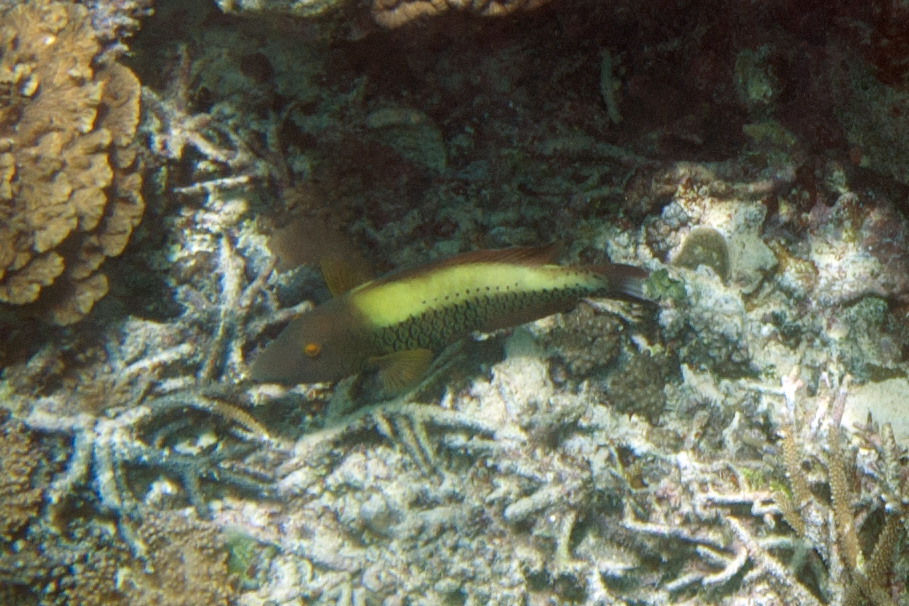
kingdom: Animalia
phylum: Chordata
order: Perciformes
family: Scaridae
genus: Cetoscarus
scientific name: Cetoscarus ocellatus
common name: Bicolor parrotfish
